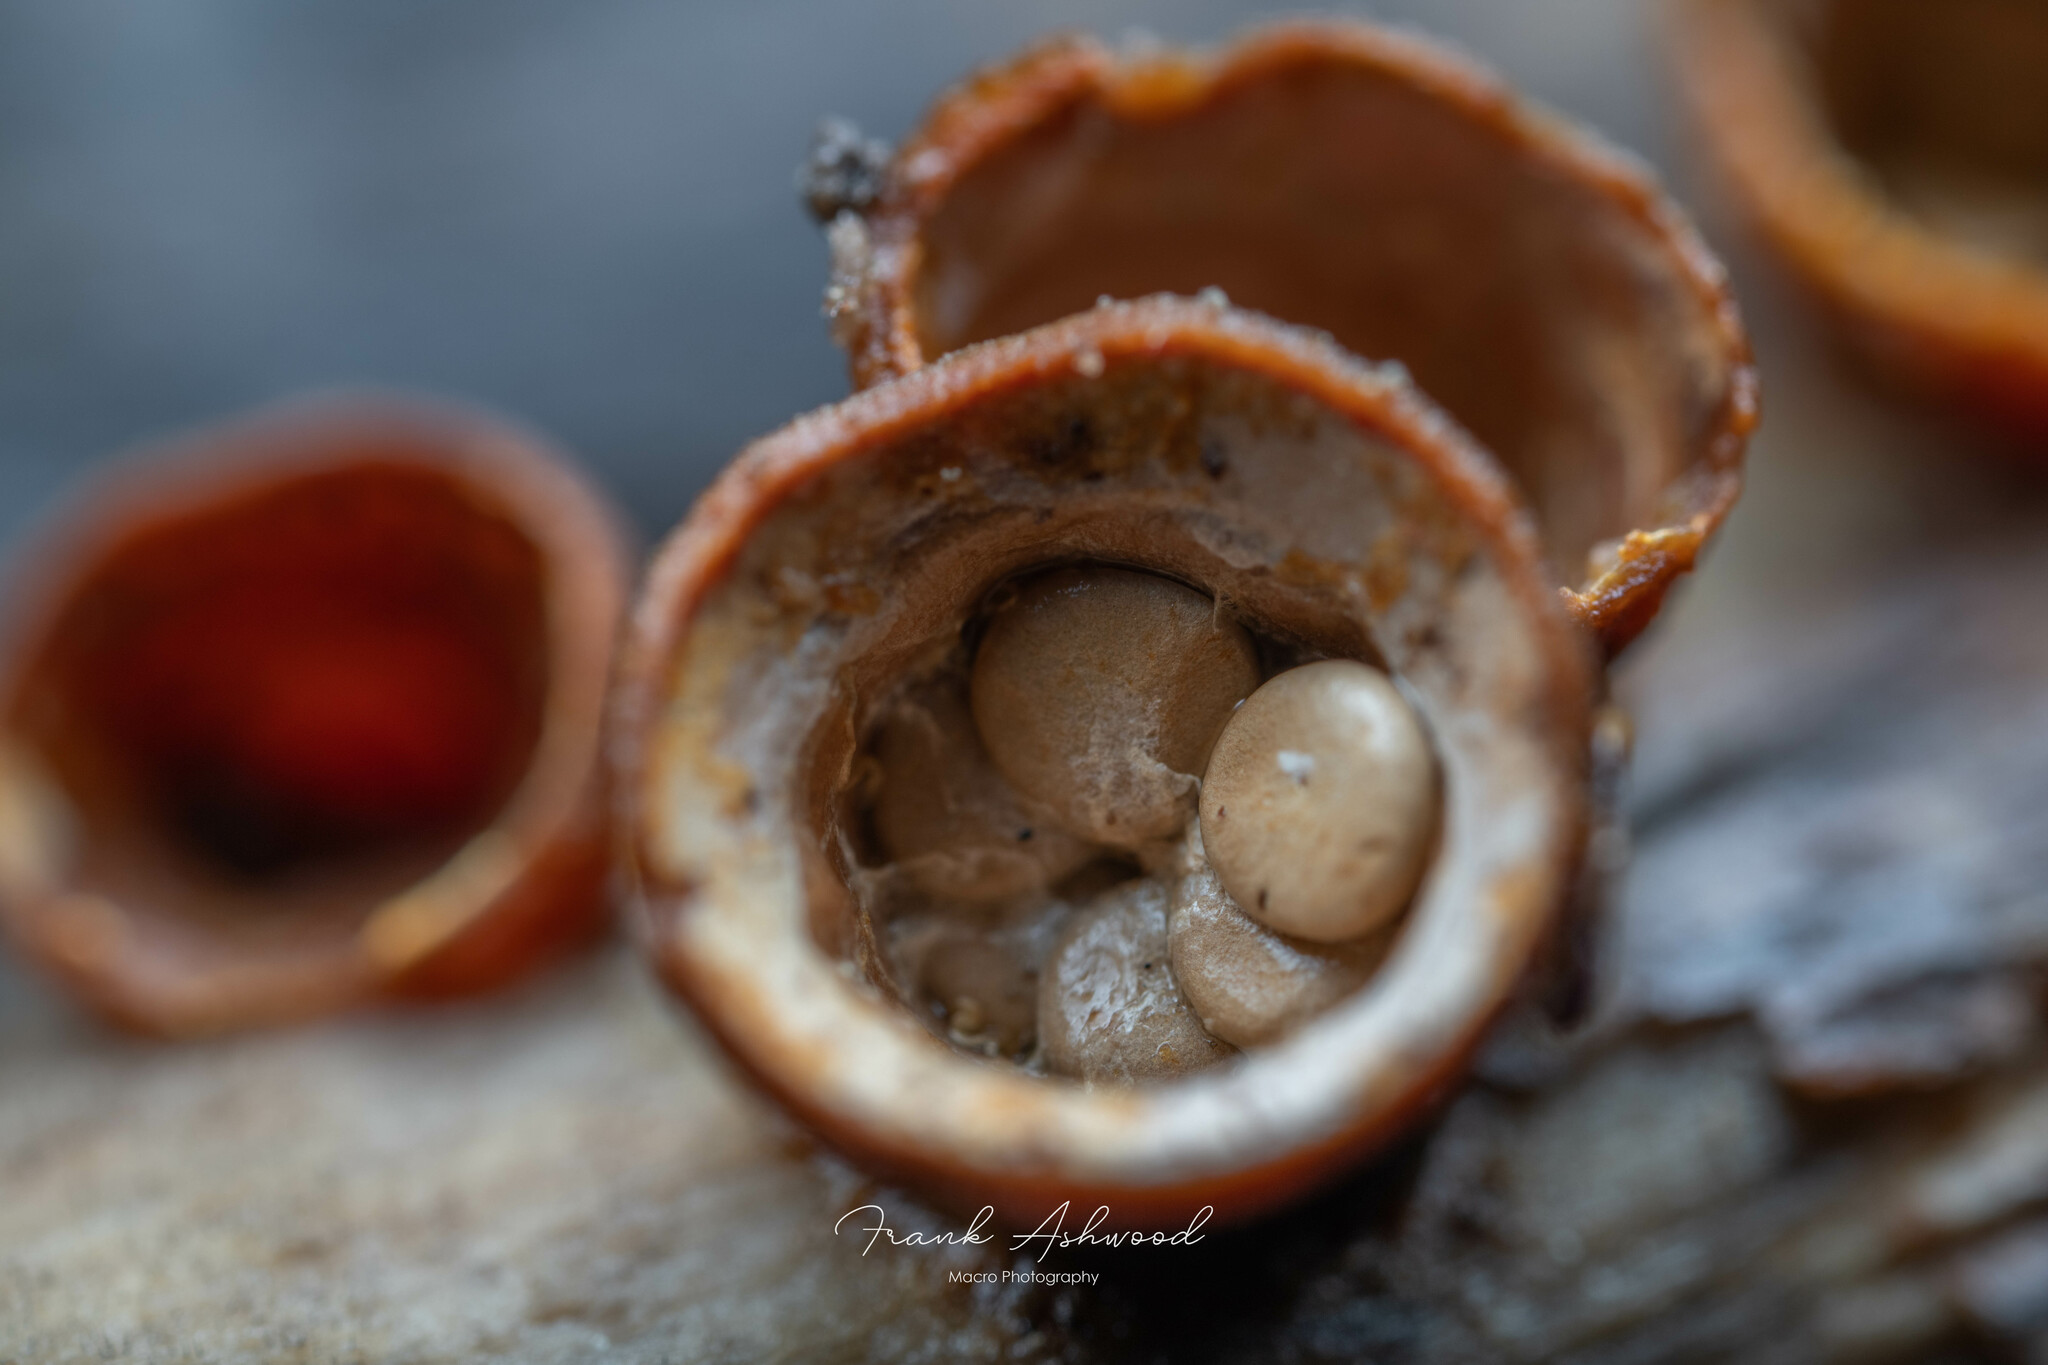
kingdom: Fungi
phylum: Basidiomycota
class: Agaricomycetes
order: Agaricales
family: Nidulariaceae
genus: Crucibulum
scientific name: Crucibulum simile
